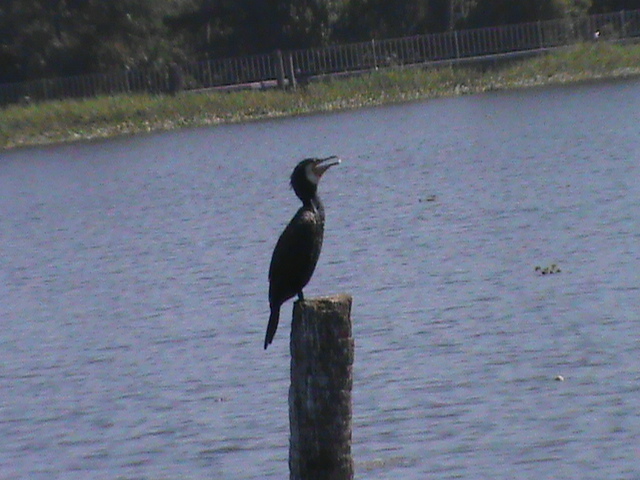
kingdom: Animalia
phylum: Chordata
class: Aves
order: Suliformes
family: Phalacrocoracidae
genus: Phalacrocorax
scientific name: Phalacrocorax carbo
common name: Great cormorant
